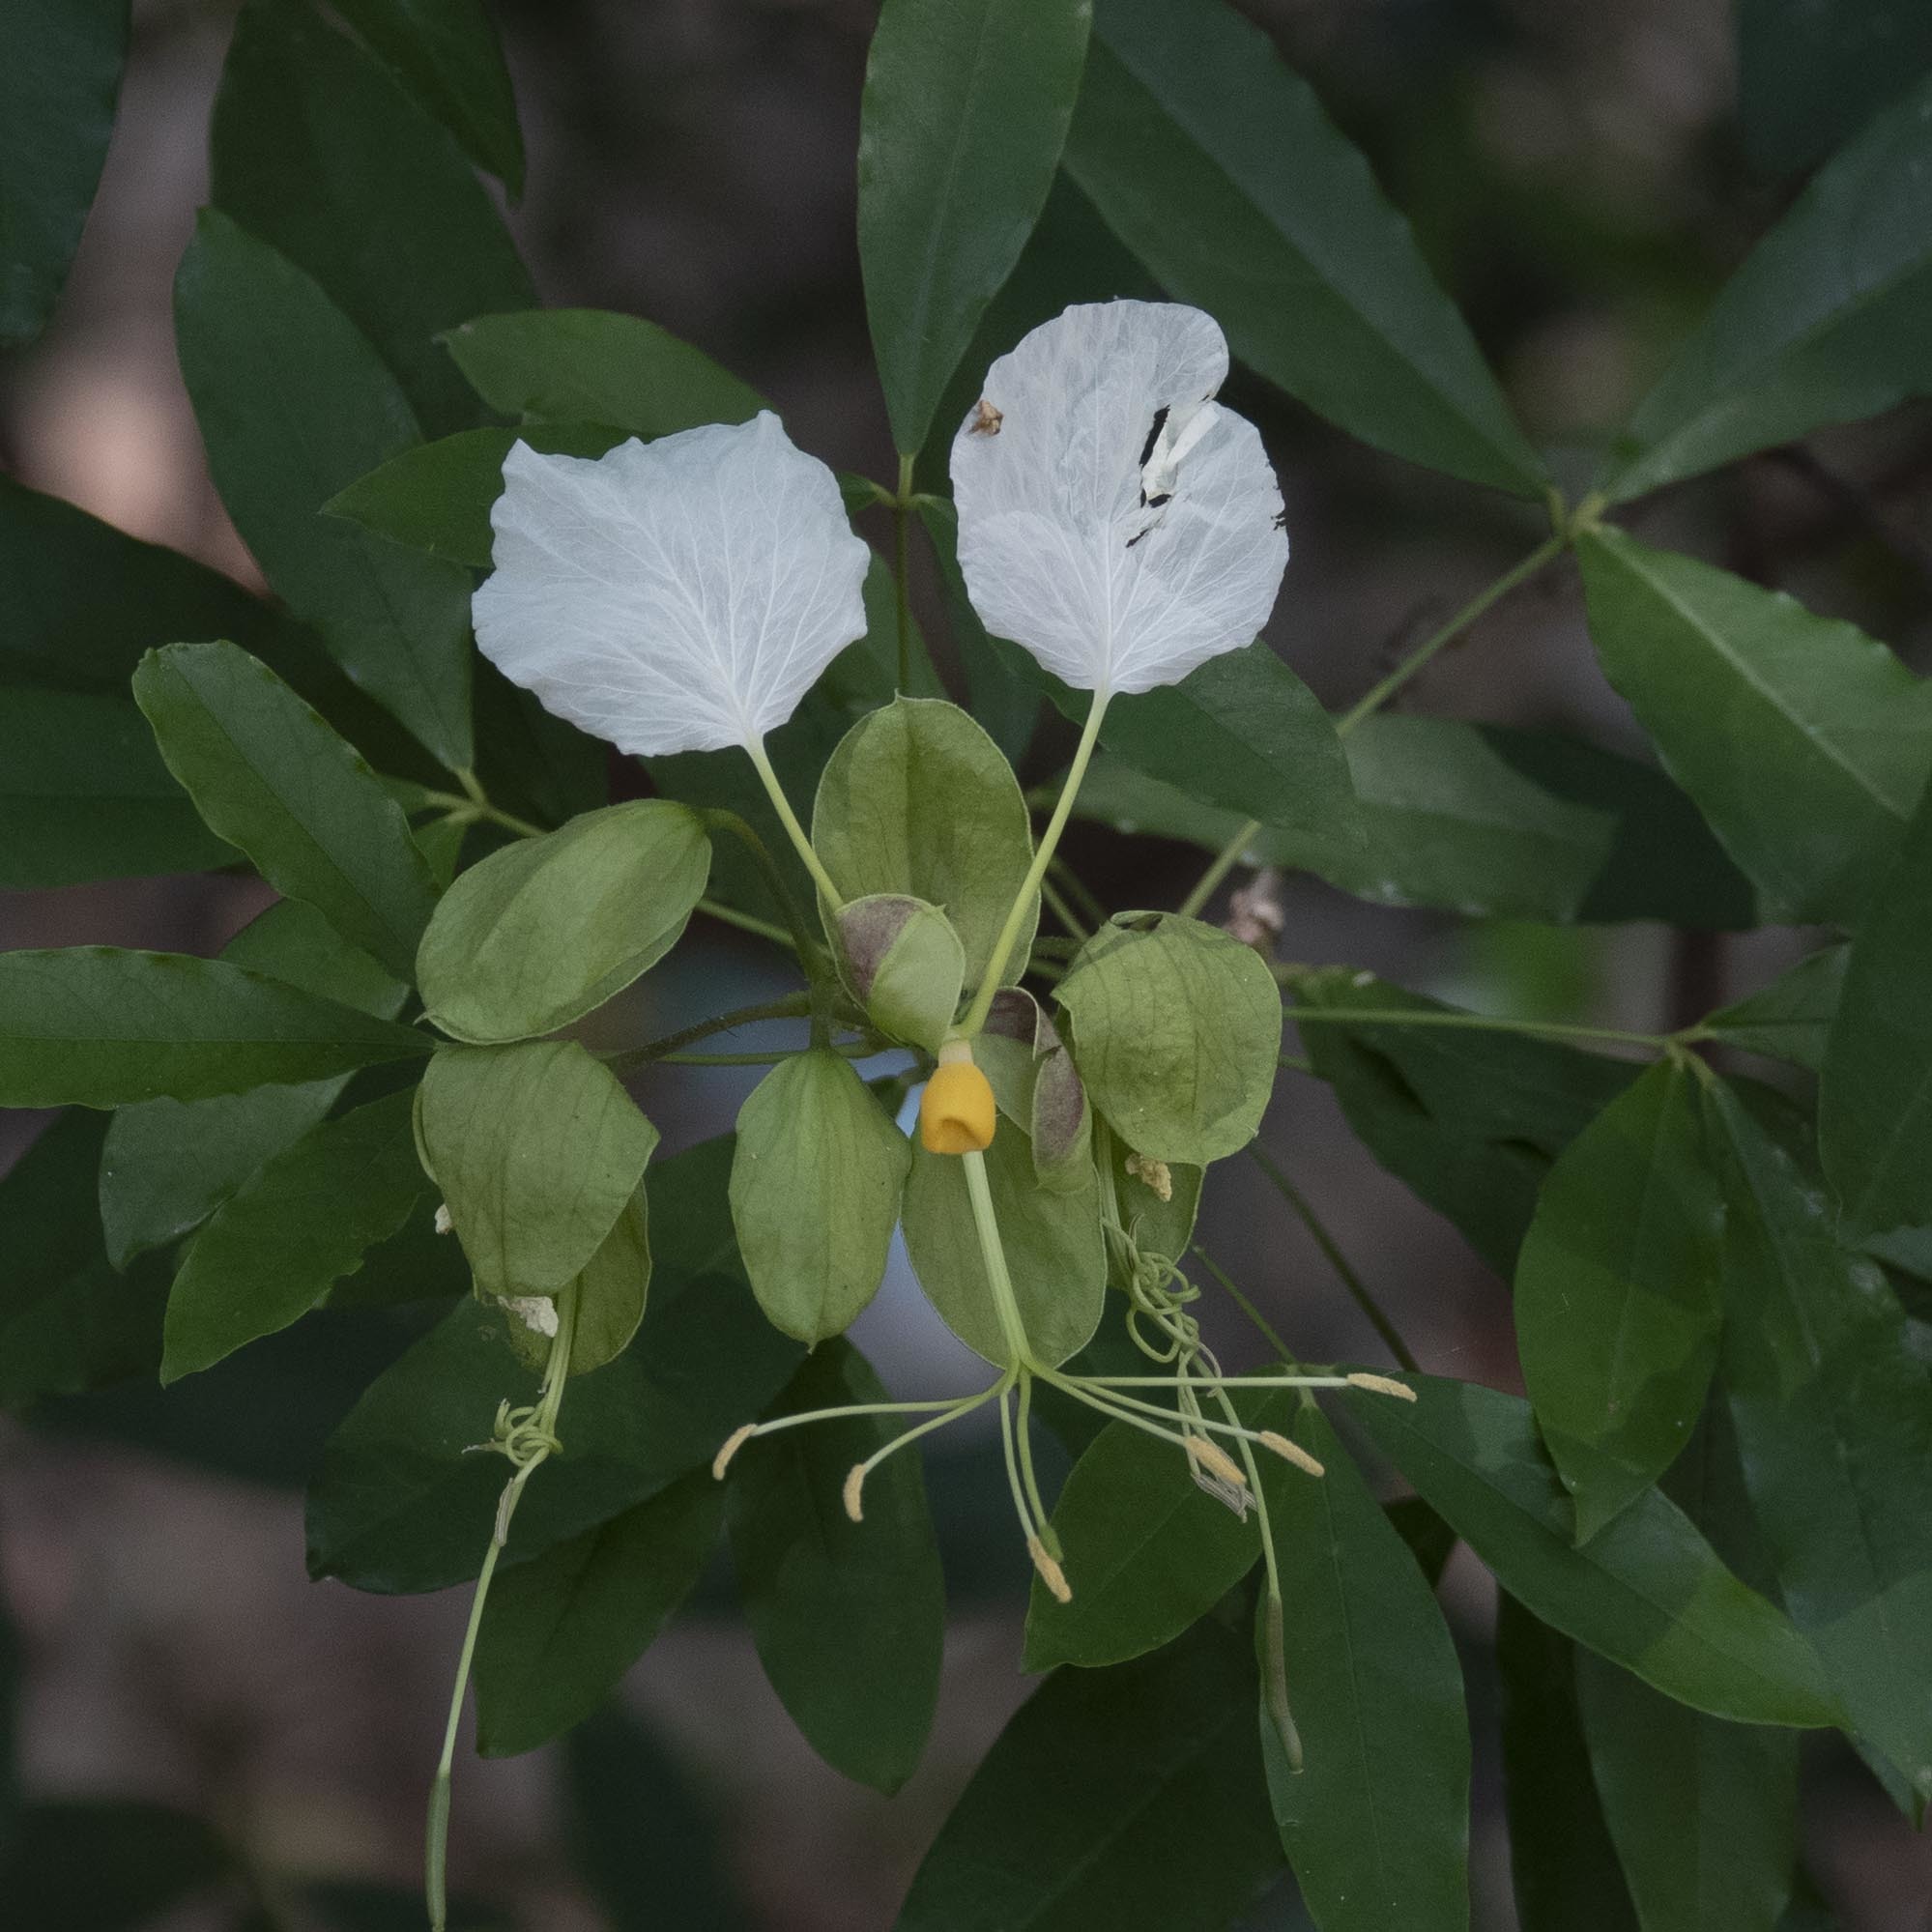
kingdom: Plantae
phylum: Tracheophyta
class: Magnoliopsida
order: Brassicales
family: Capparaceae
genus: Cadaba
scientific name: Cadaba trifoliata
